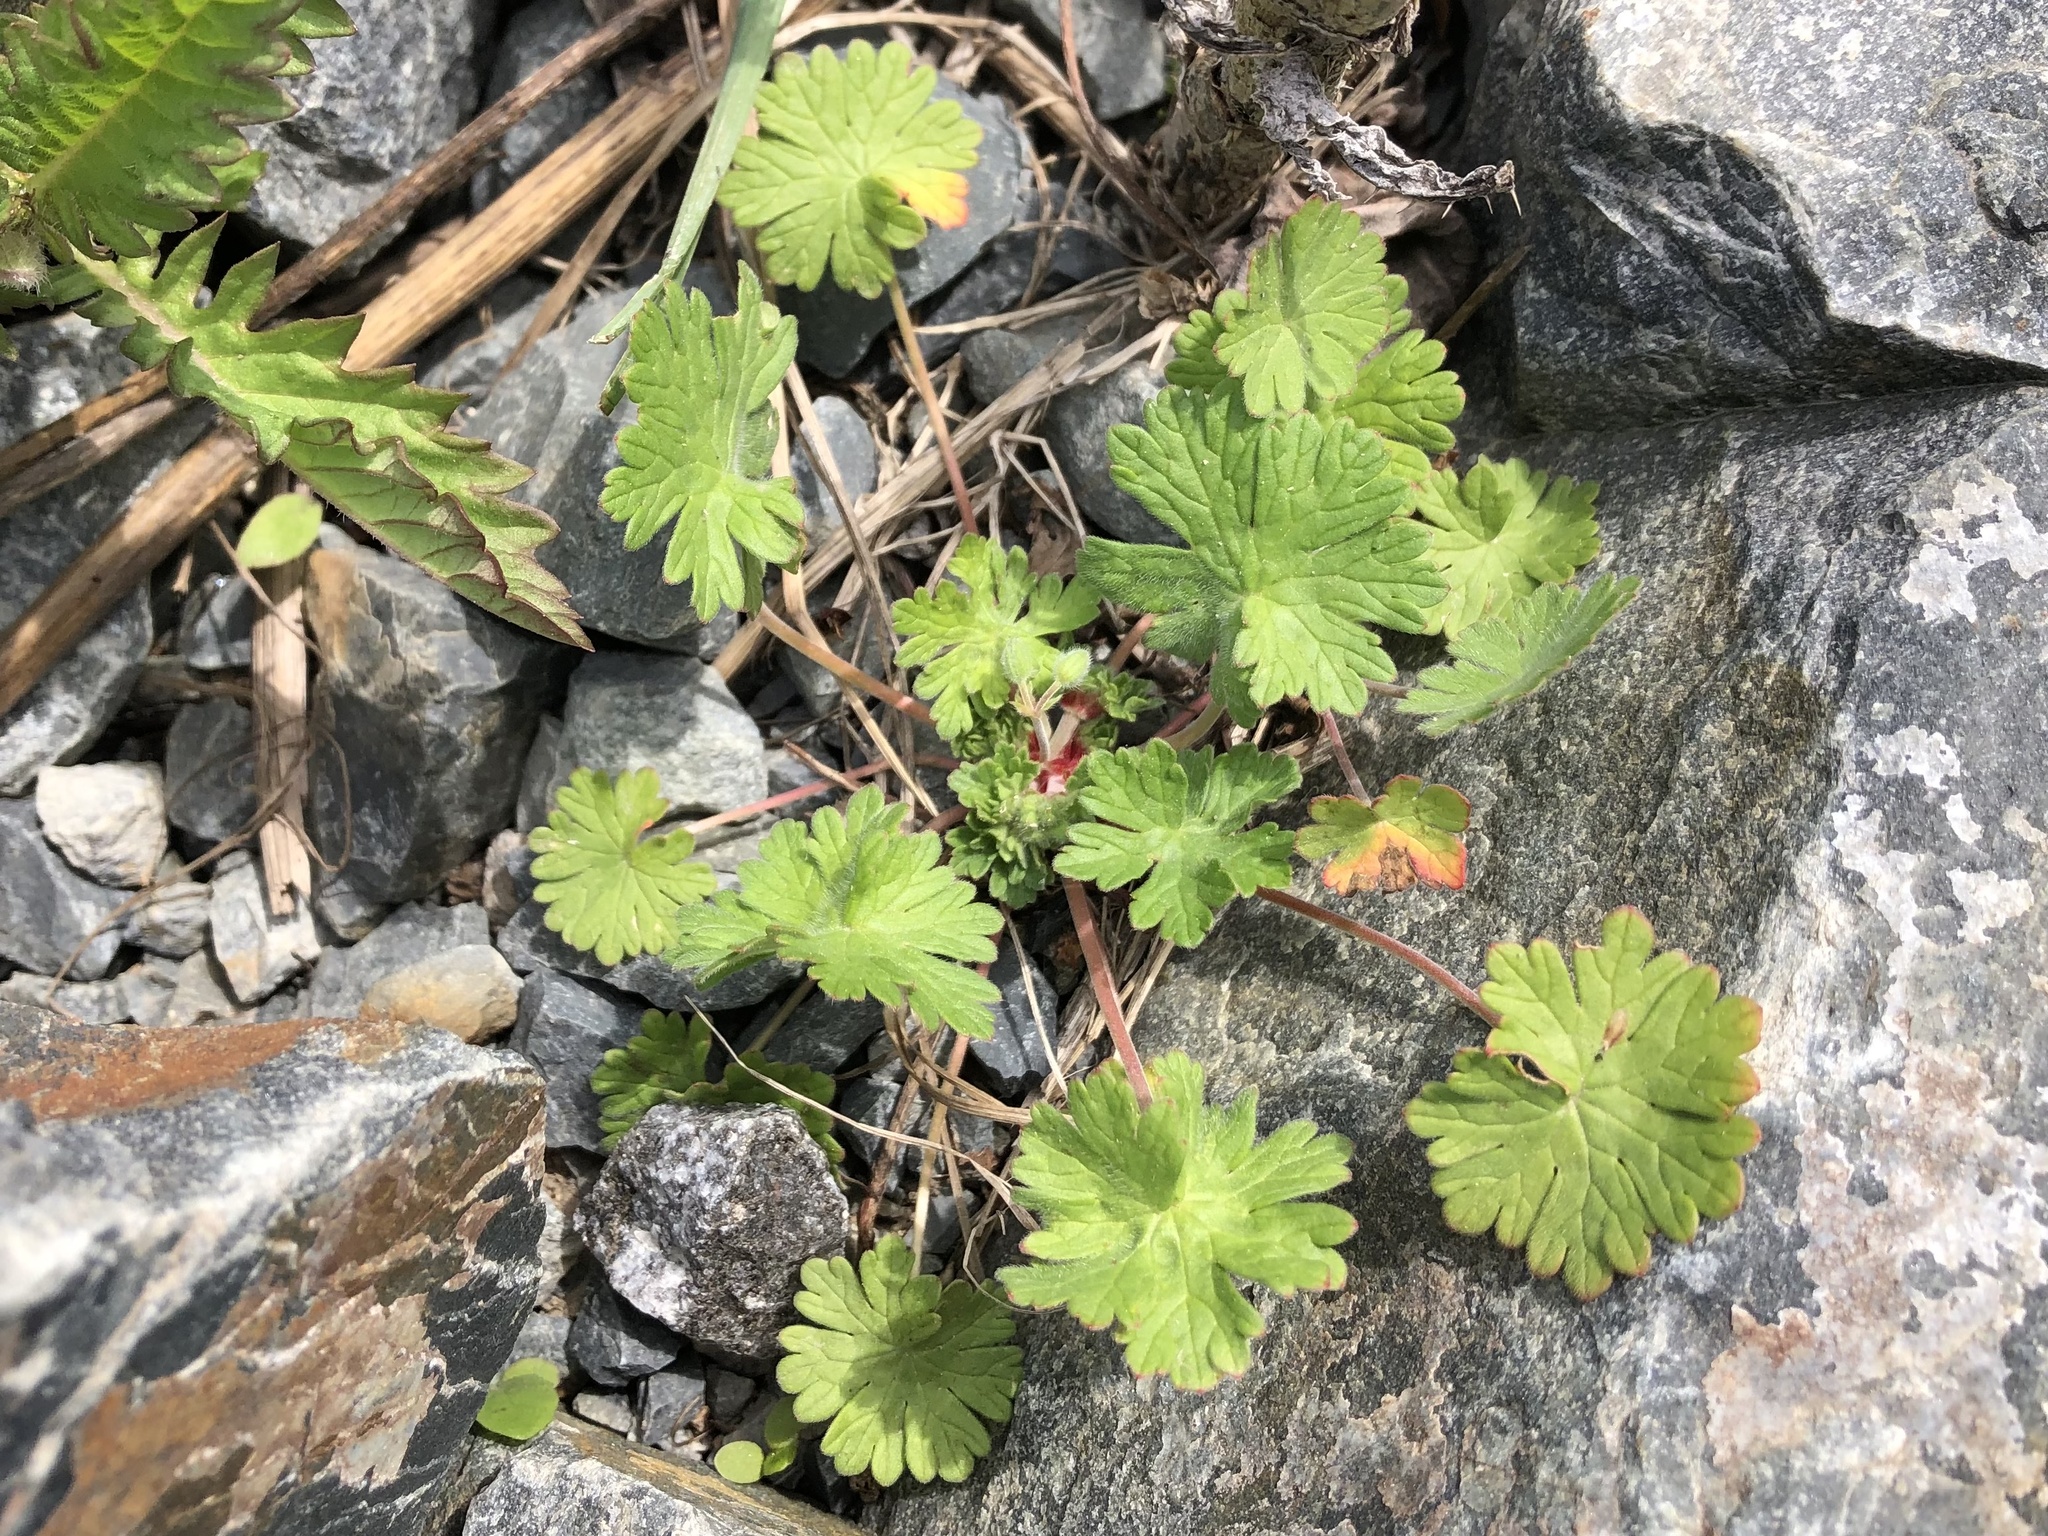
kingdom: Plantae
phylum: Tracheophyta
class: Magnoliopsida
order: Geraniales
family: Geraniaceae
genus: Geranium
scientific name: Geranium pusillum
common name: Small geranium
